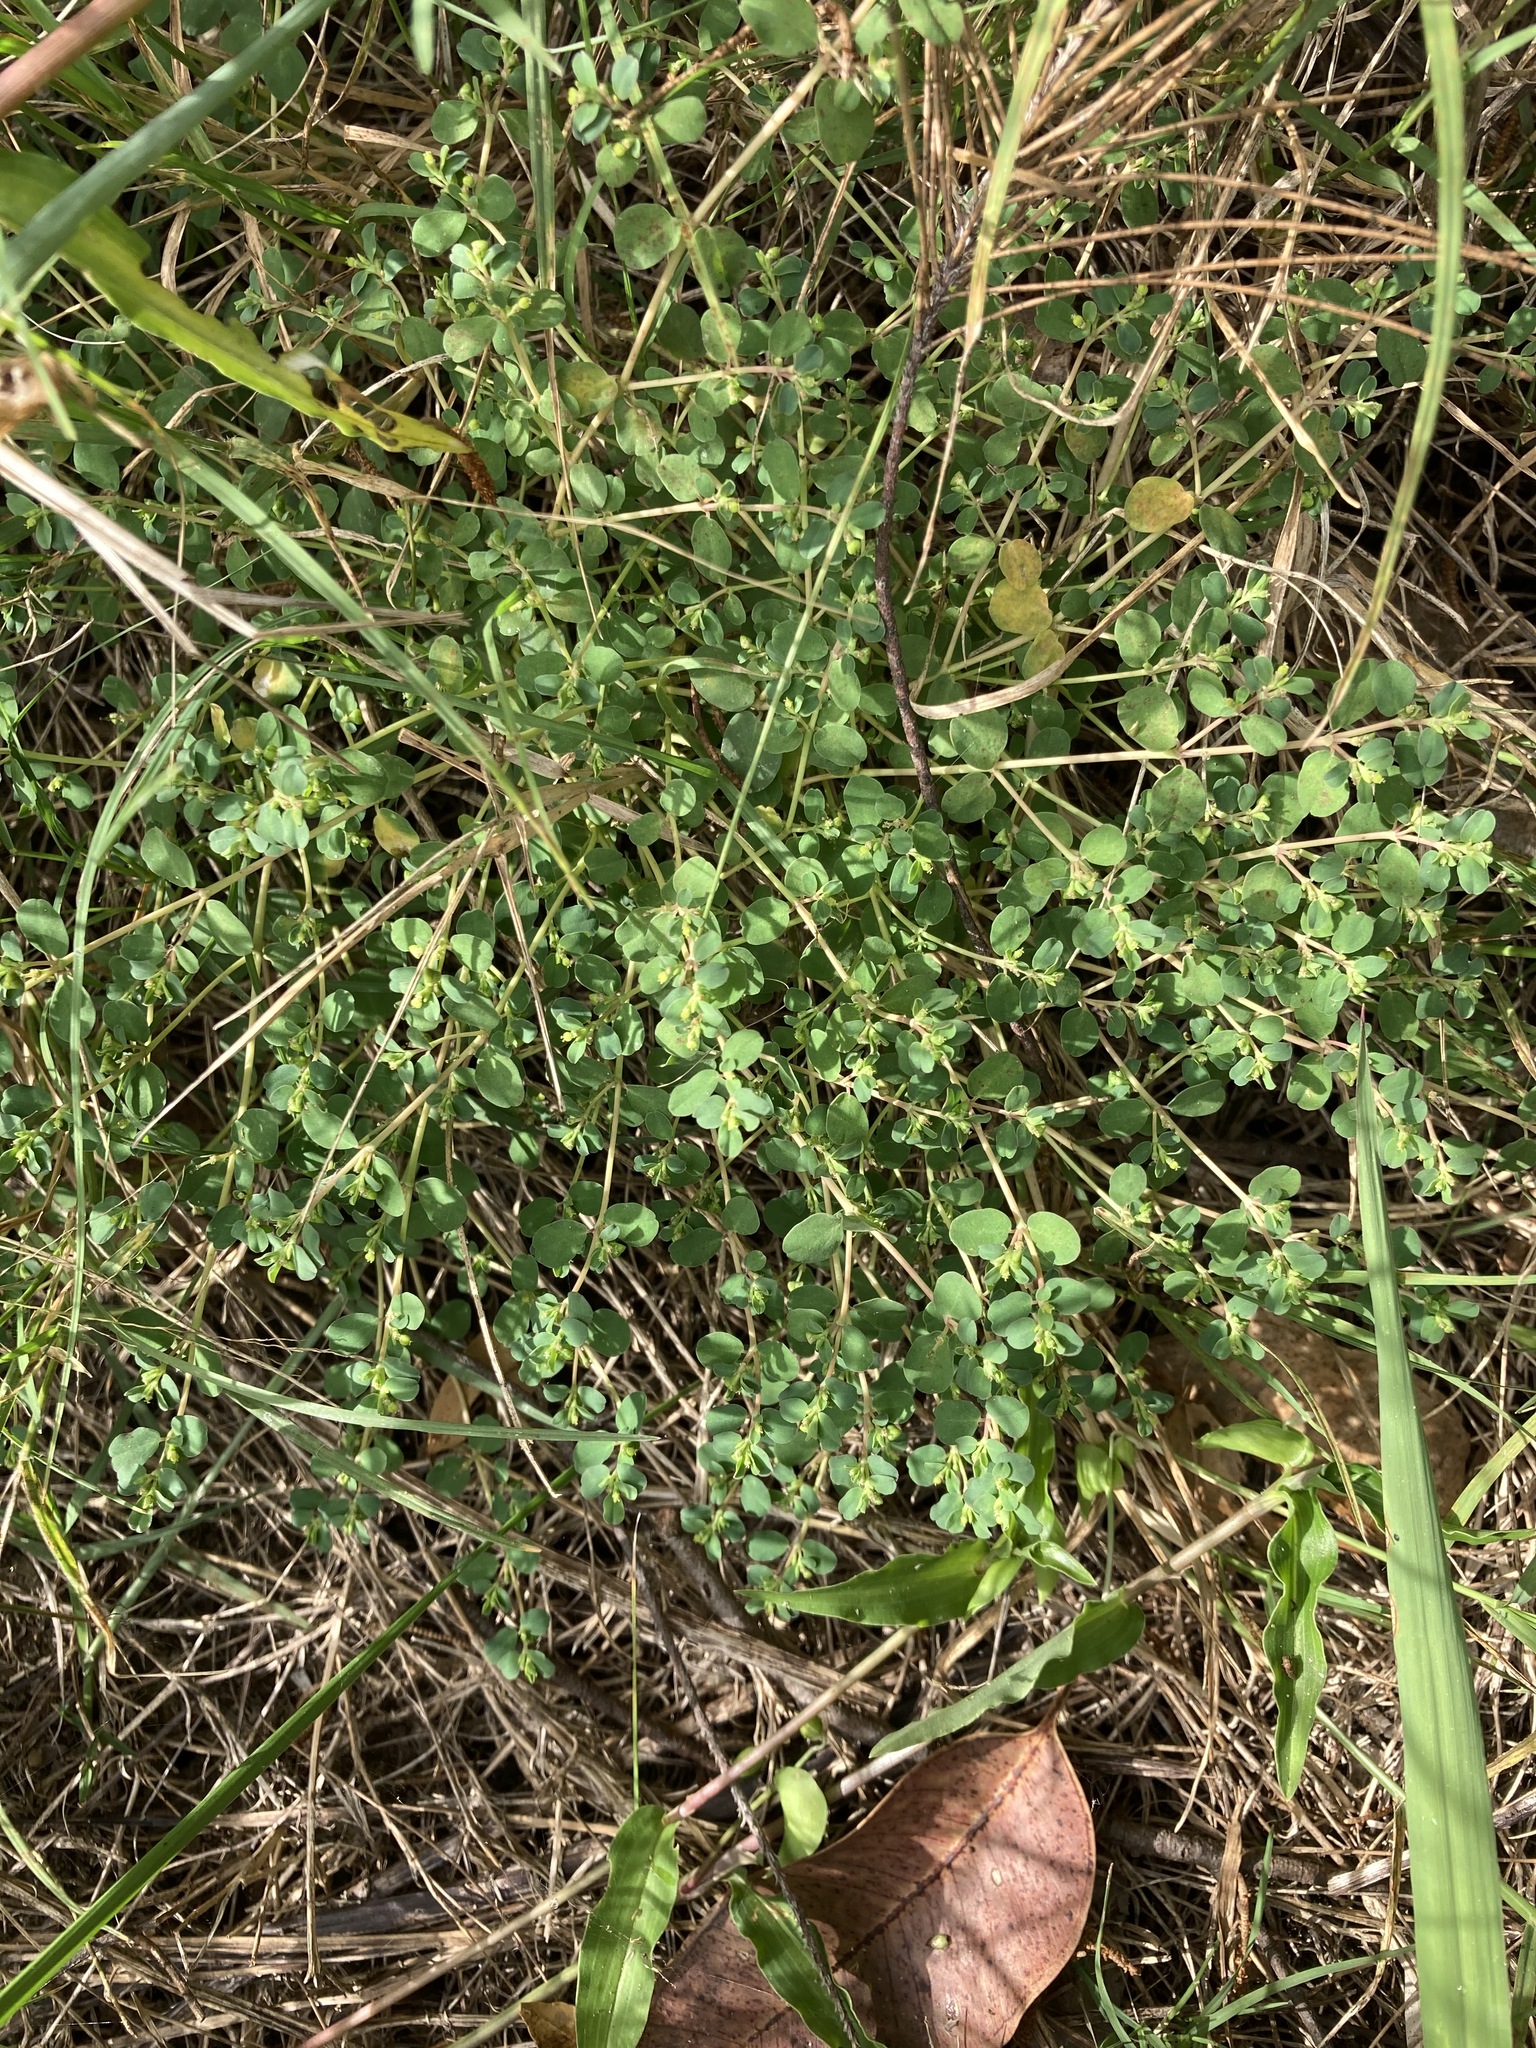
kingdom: Plantae
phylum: Tracheophyta
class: Magnoliopsida
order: Malpighiales
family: Euphorbiaceae
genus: Euphorbia
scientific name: Euphorbia serpens
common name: Matted sandmat
